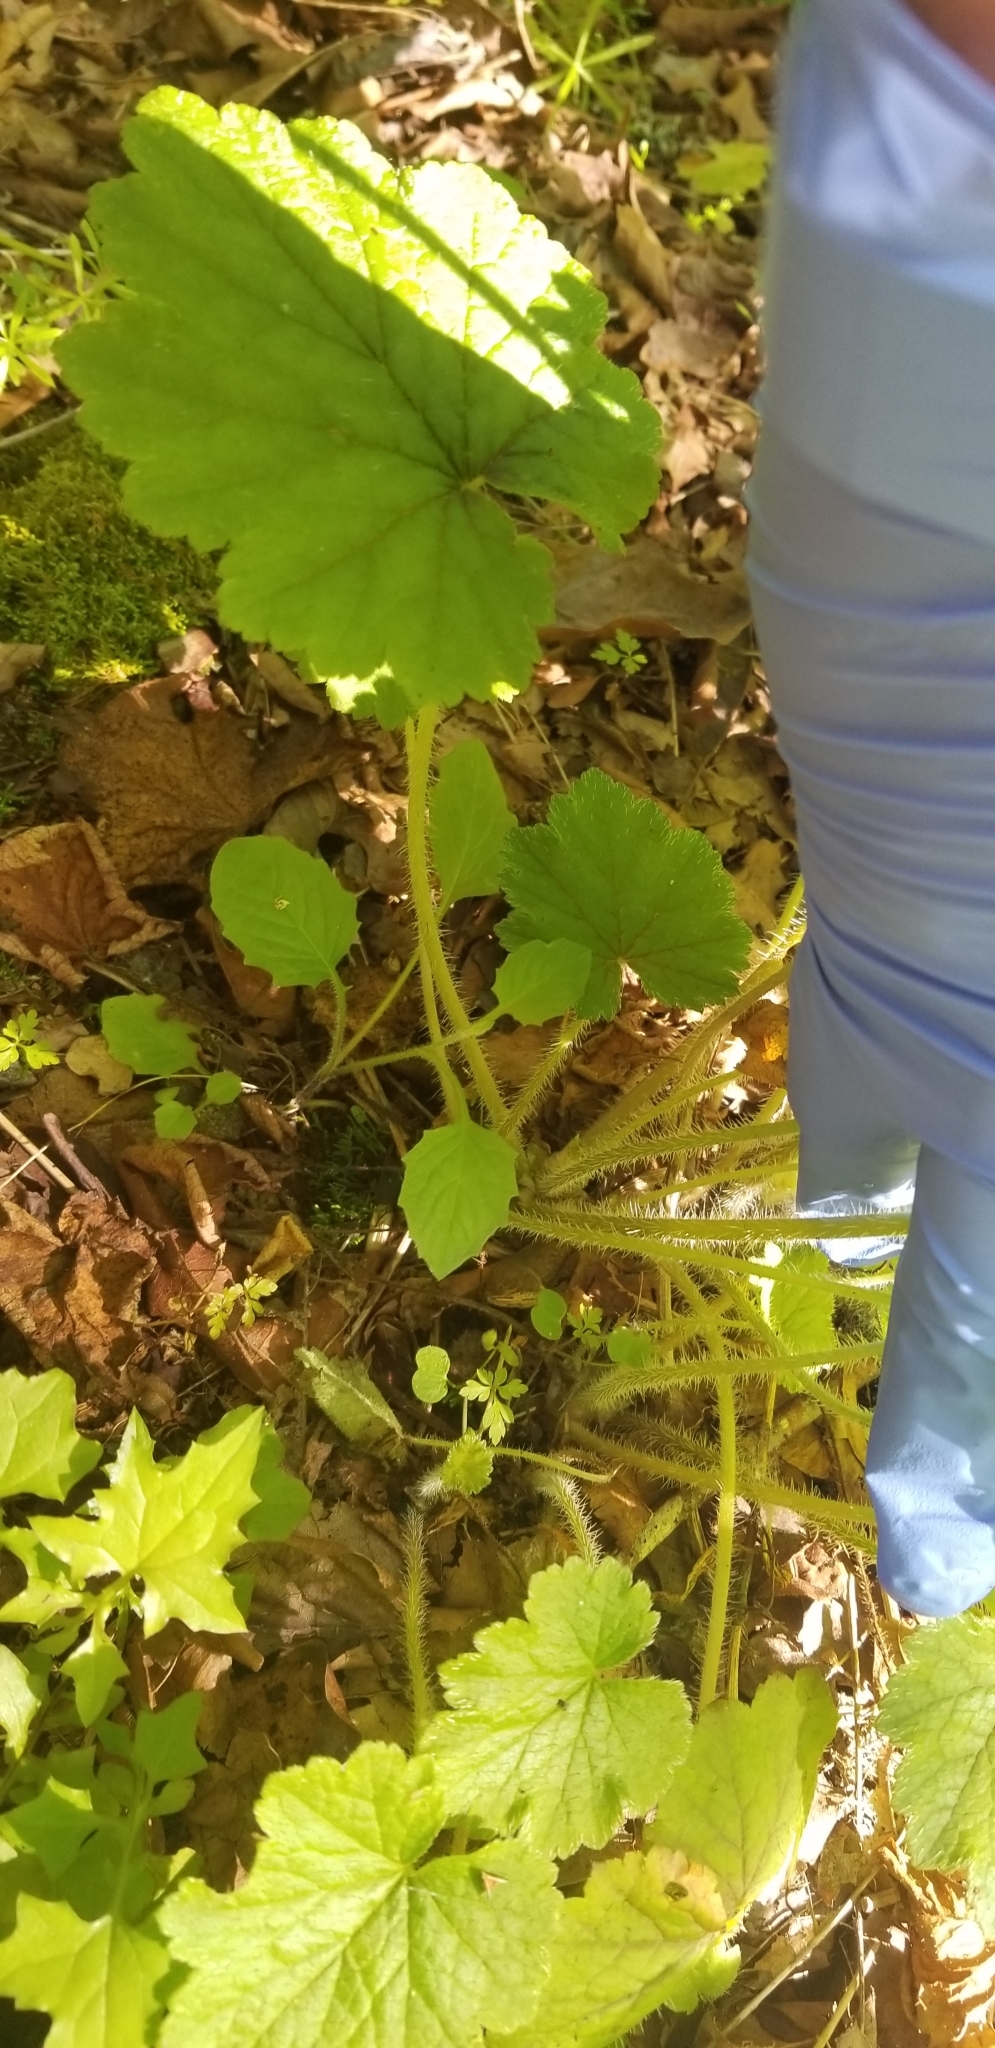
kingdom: Plantae
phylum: Tracheophyta
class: Magnoliopsida
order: Saxifragales
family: Saxifragaceae
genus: Tellima
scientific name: Tellima grandiflora
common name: Fringecups
